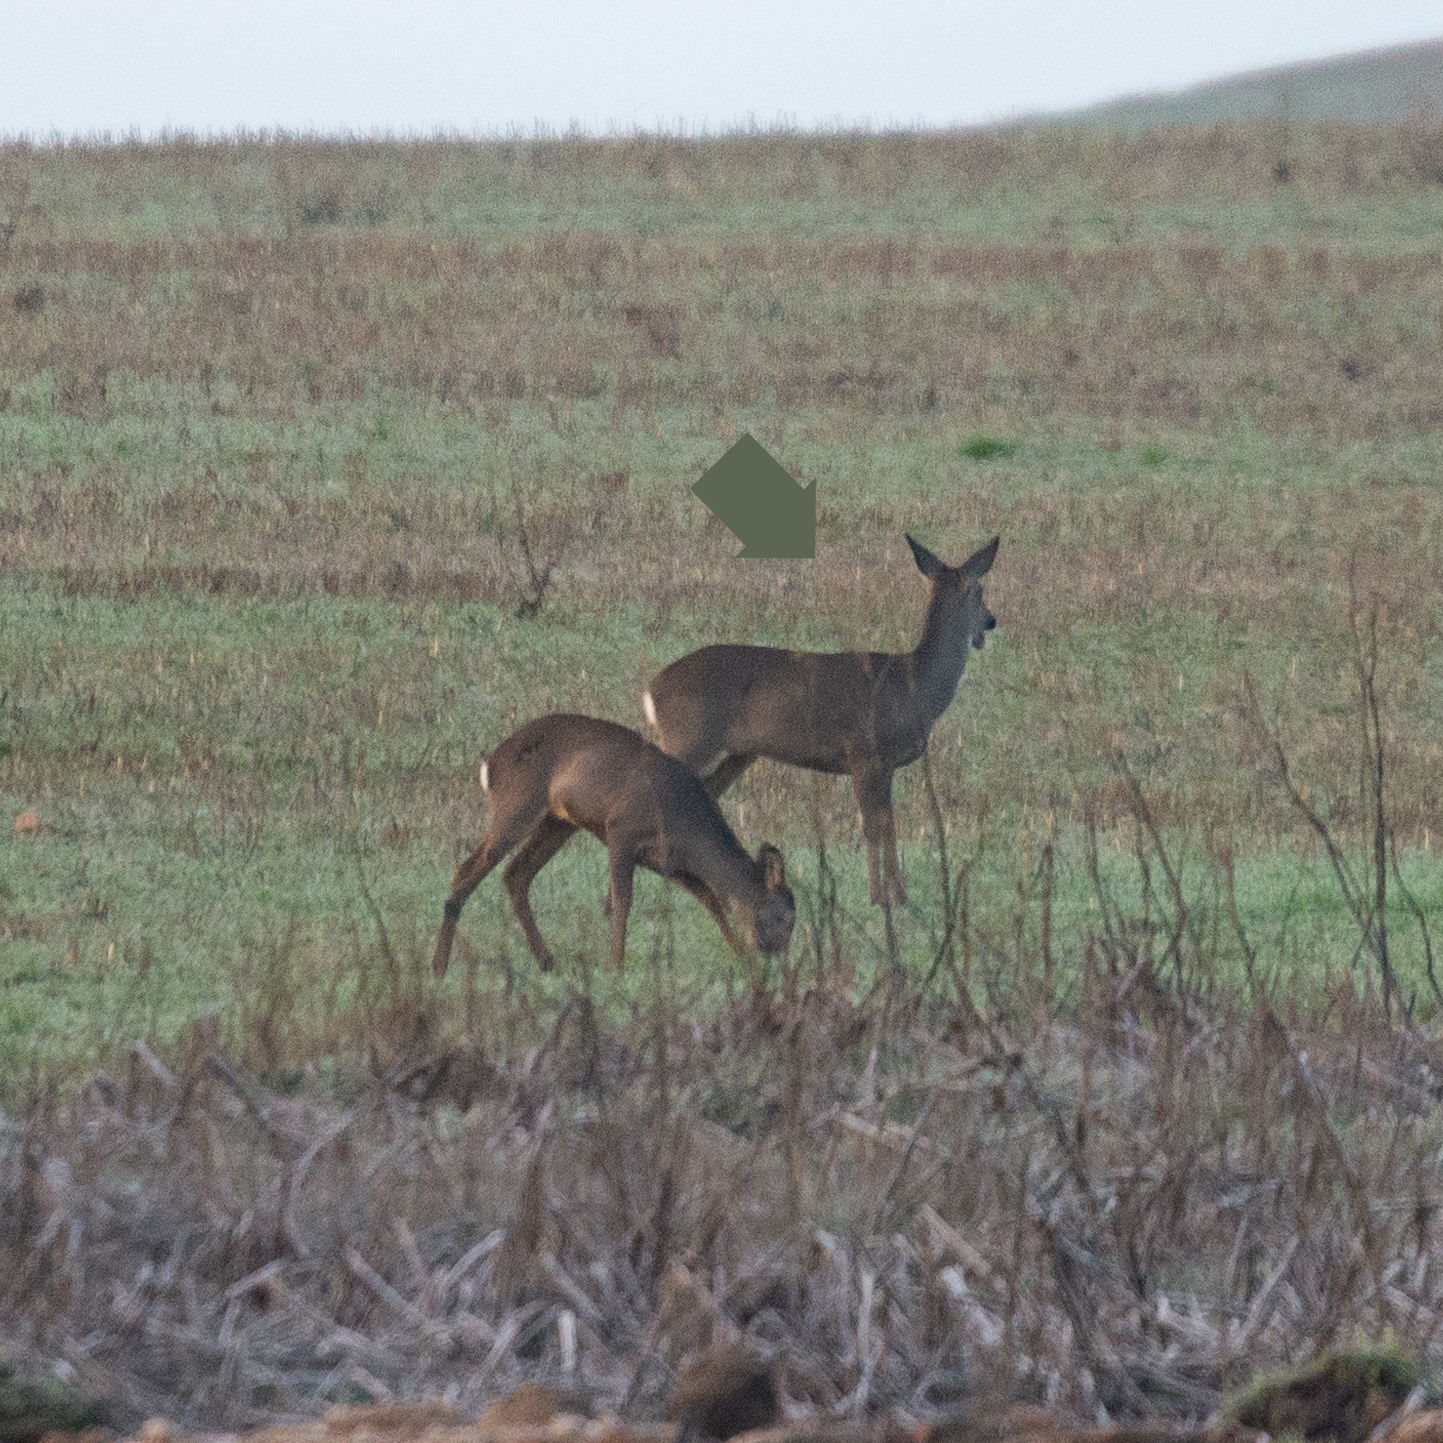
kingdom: Animalia
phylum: Chordata
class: Mammalia
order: Artiodactyla
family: Cervidae
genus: Capreolus
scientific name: Capreolus capreolus
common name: Western roe deer
